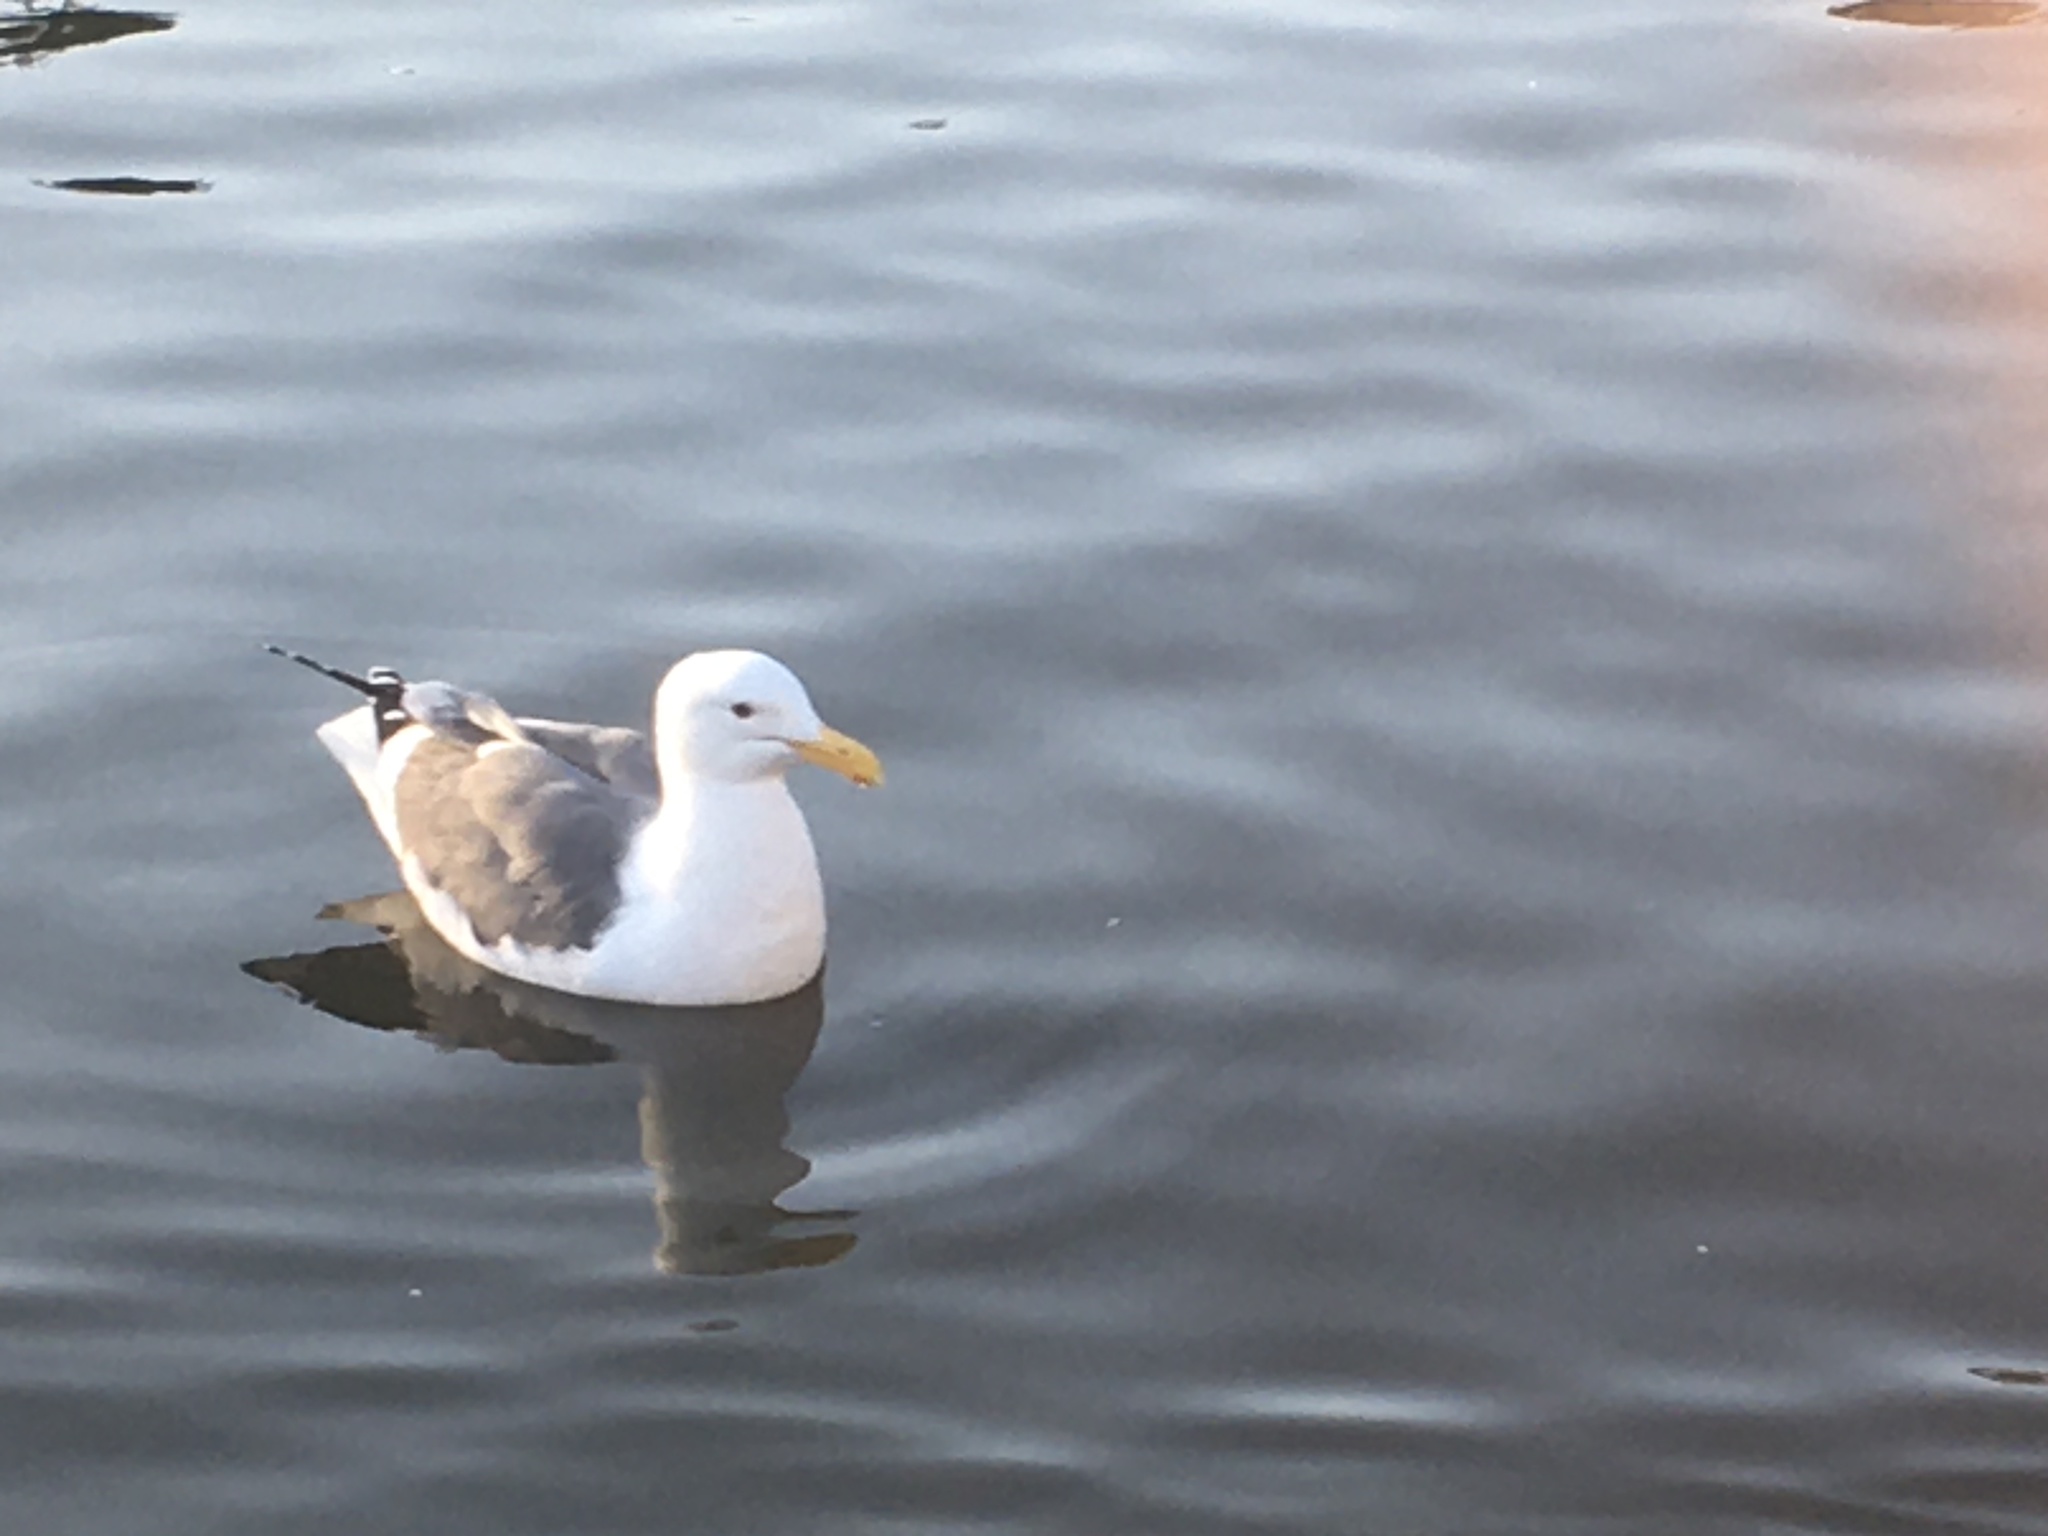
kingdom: Animalia
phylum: Chordata
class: Aves
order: Charadriiformes
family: Laridae
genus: Larus
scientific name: Larus occidentalis
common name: Western gull
